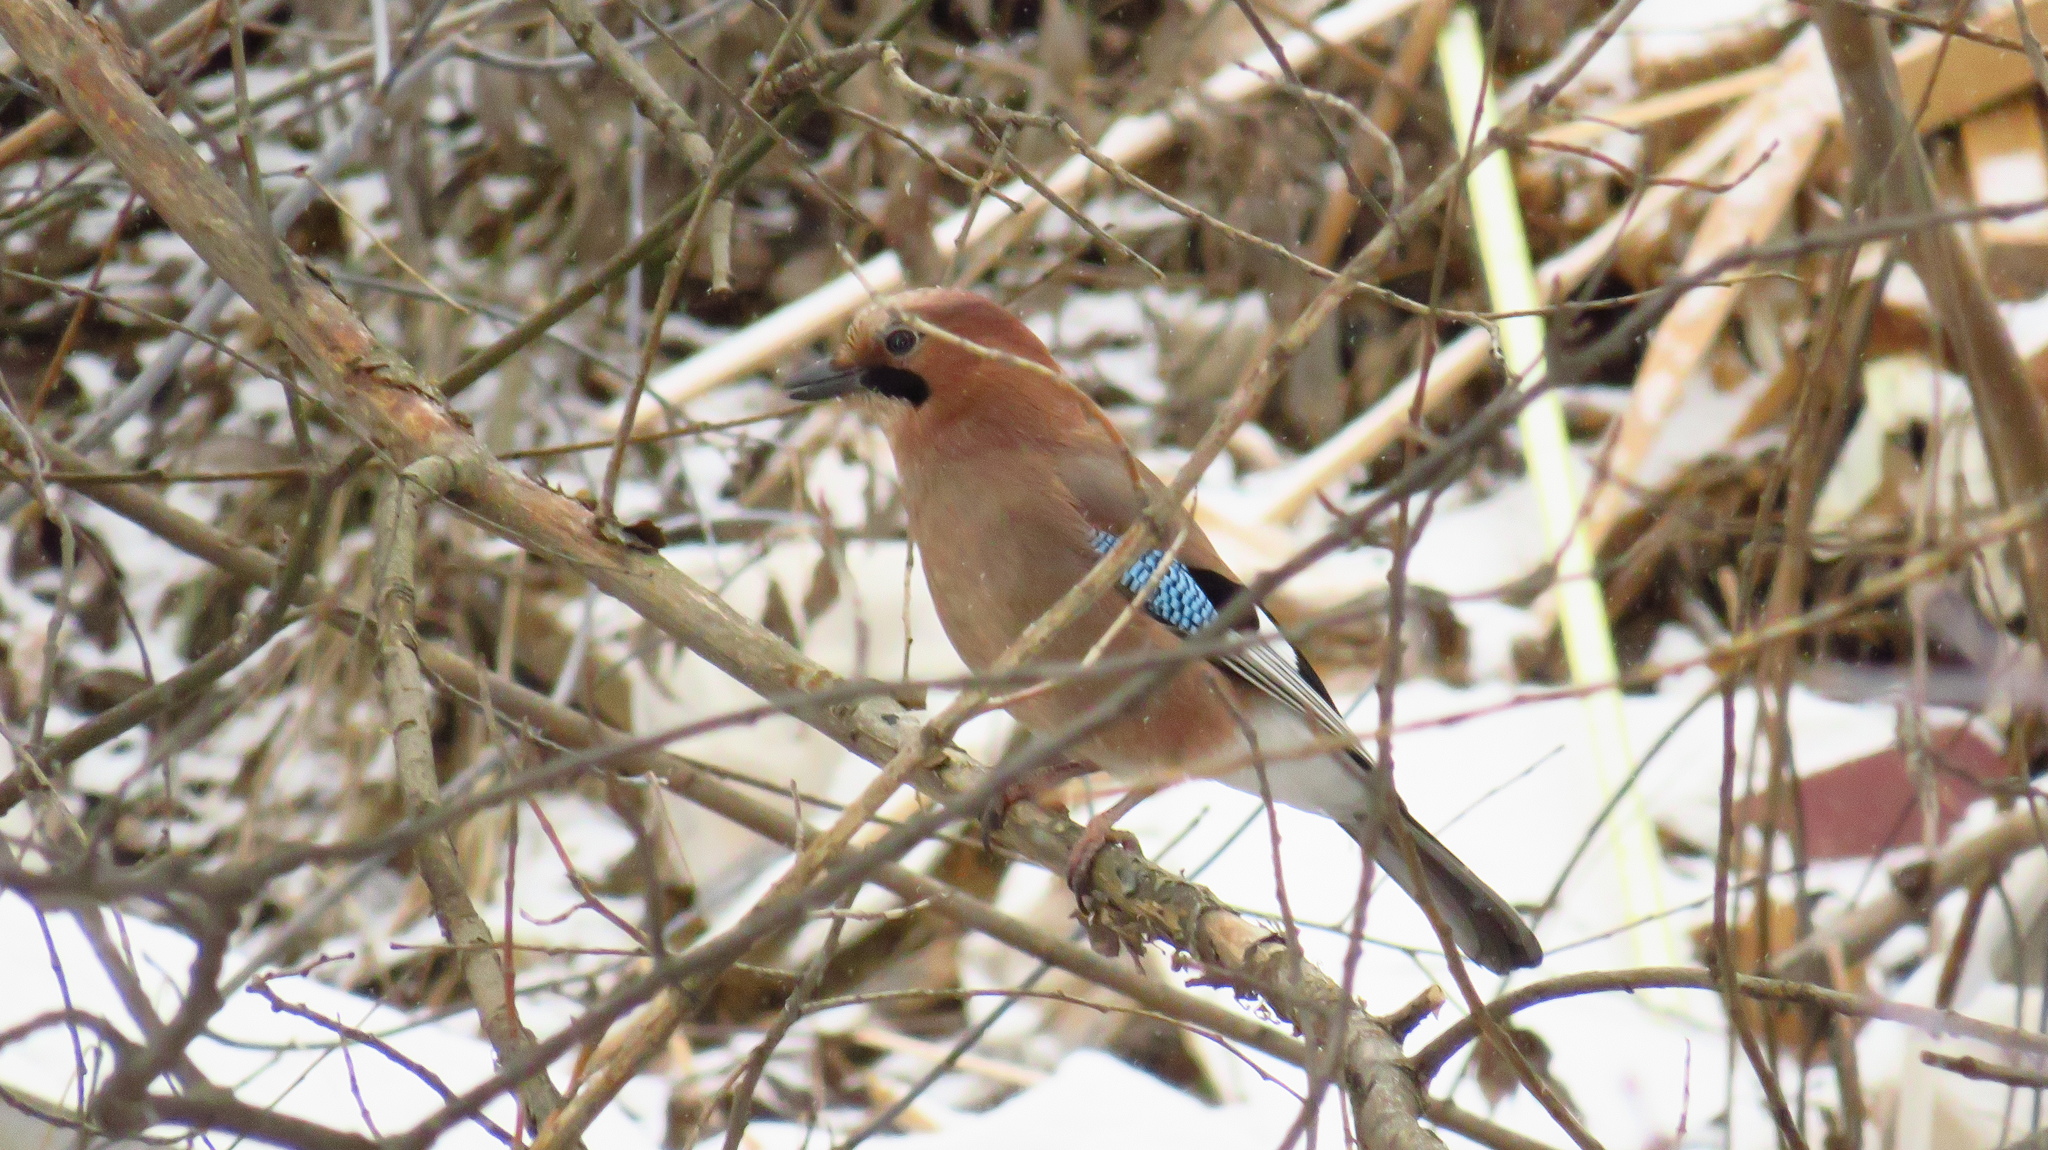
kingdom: Animalia
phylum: Chordata
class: Aves
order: Passeriformes
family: Corvidae
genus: Garrulus
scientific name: Garrulus glandarius
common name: Eurasian jay
